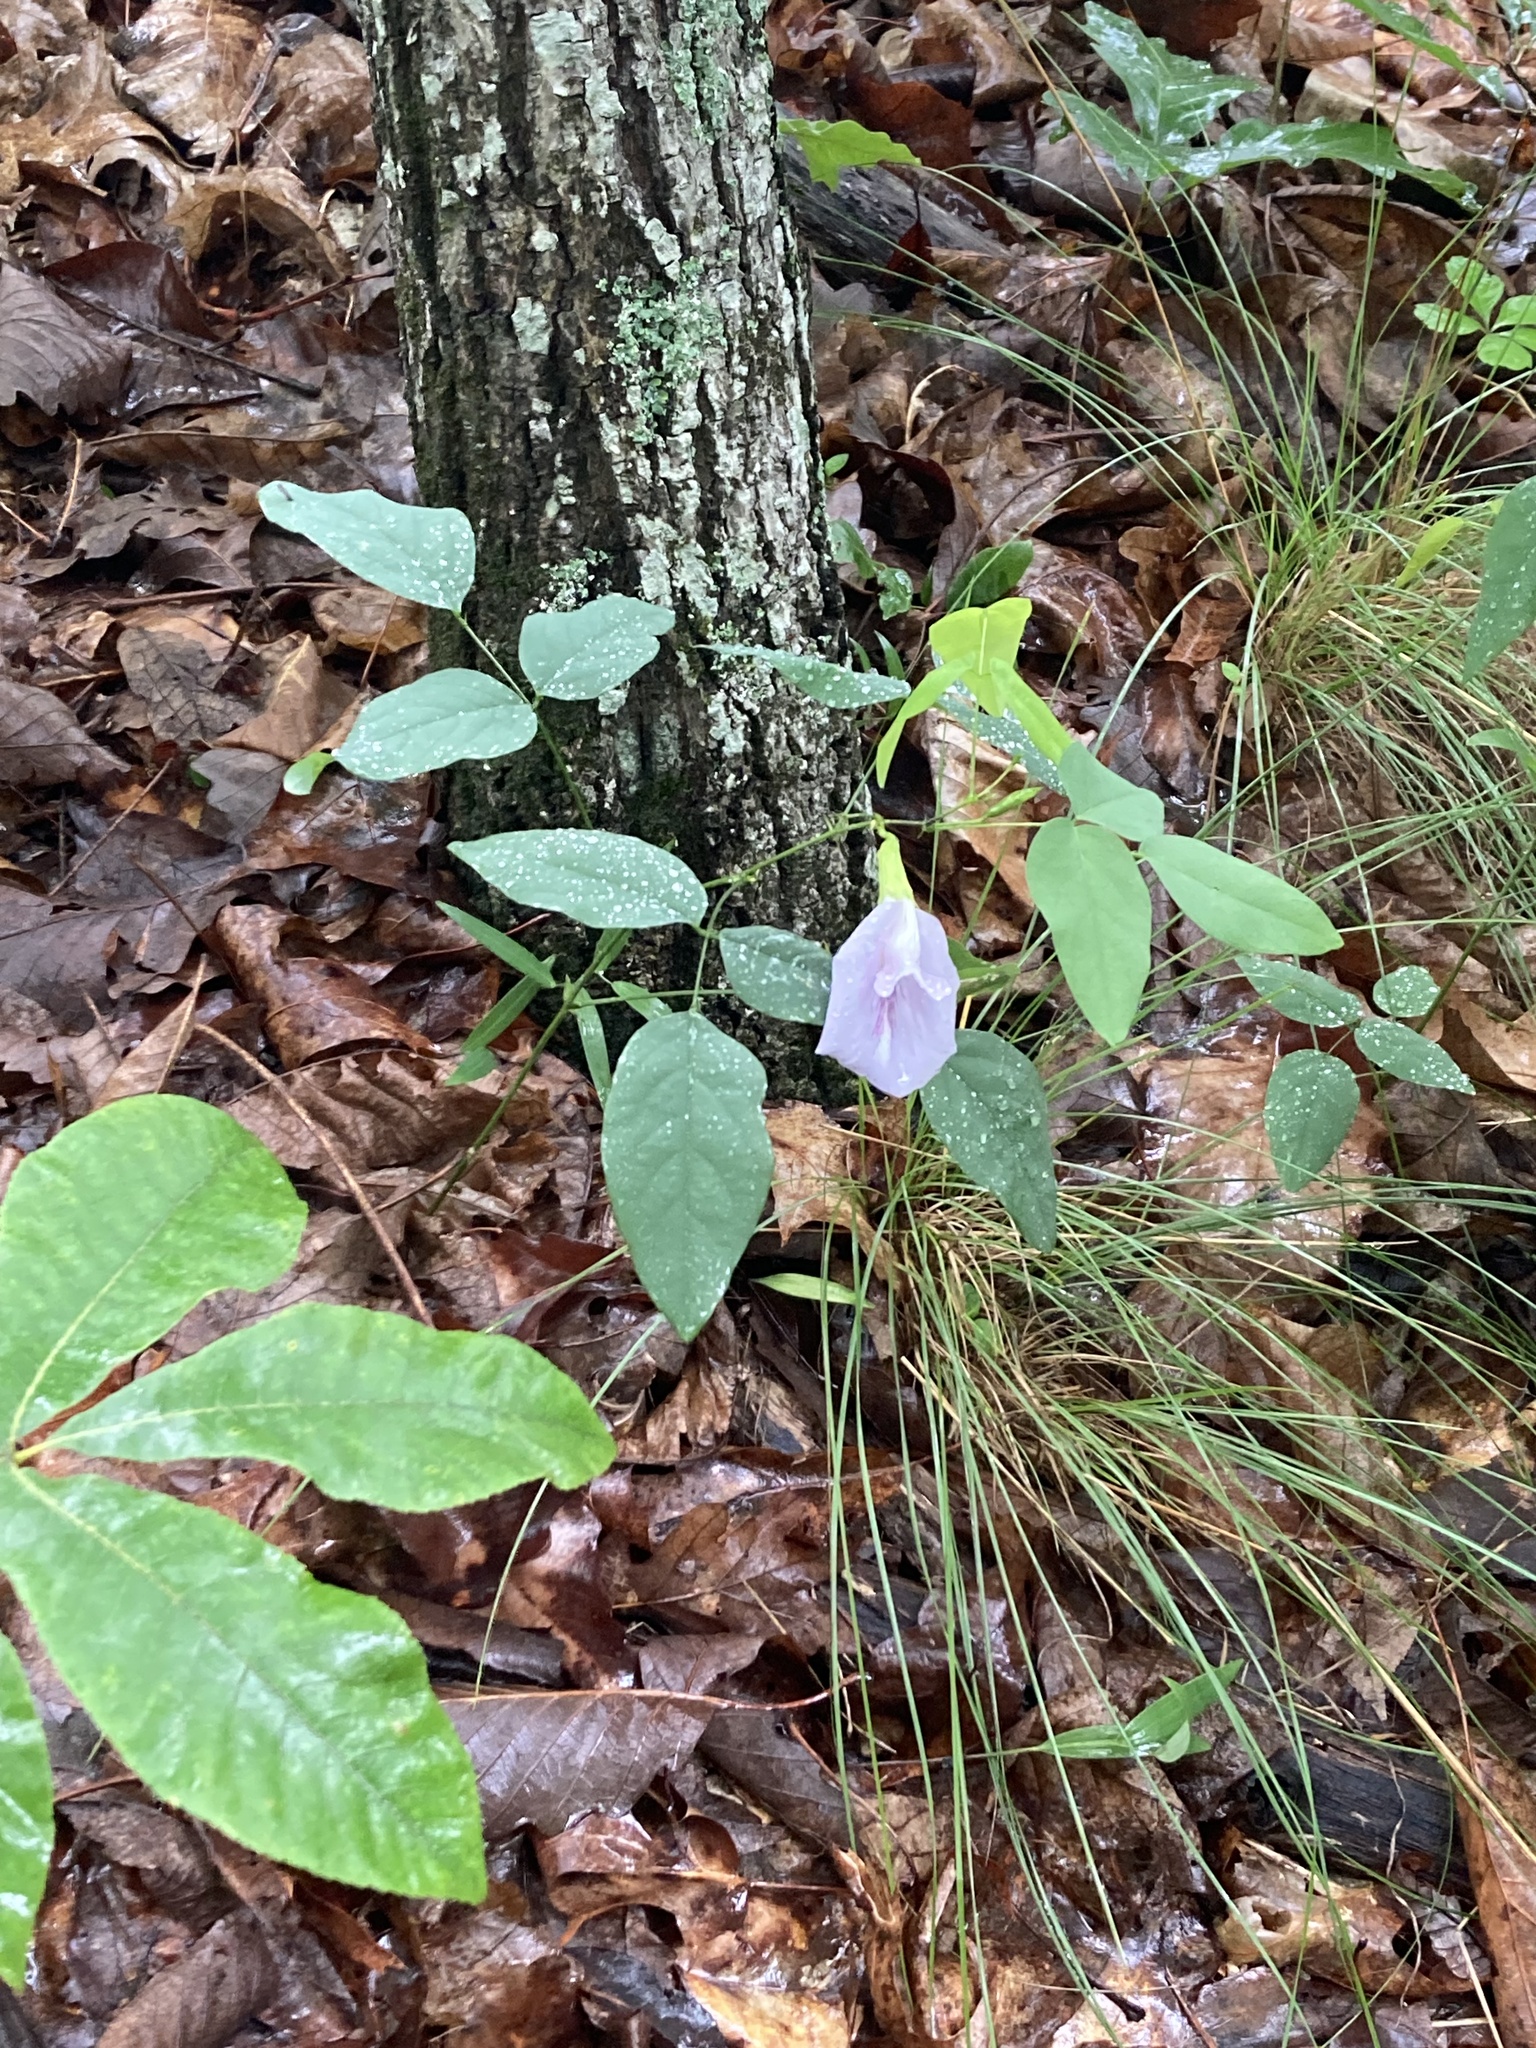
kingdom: Plantae
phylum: Tracheophyta
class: Magnoliopsida
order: Fabales
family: Fabaceae
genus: Clitoria
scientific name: Clitoria mariana
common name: Butterfly-pea
